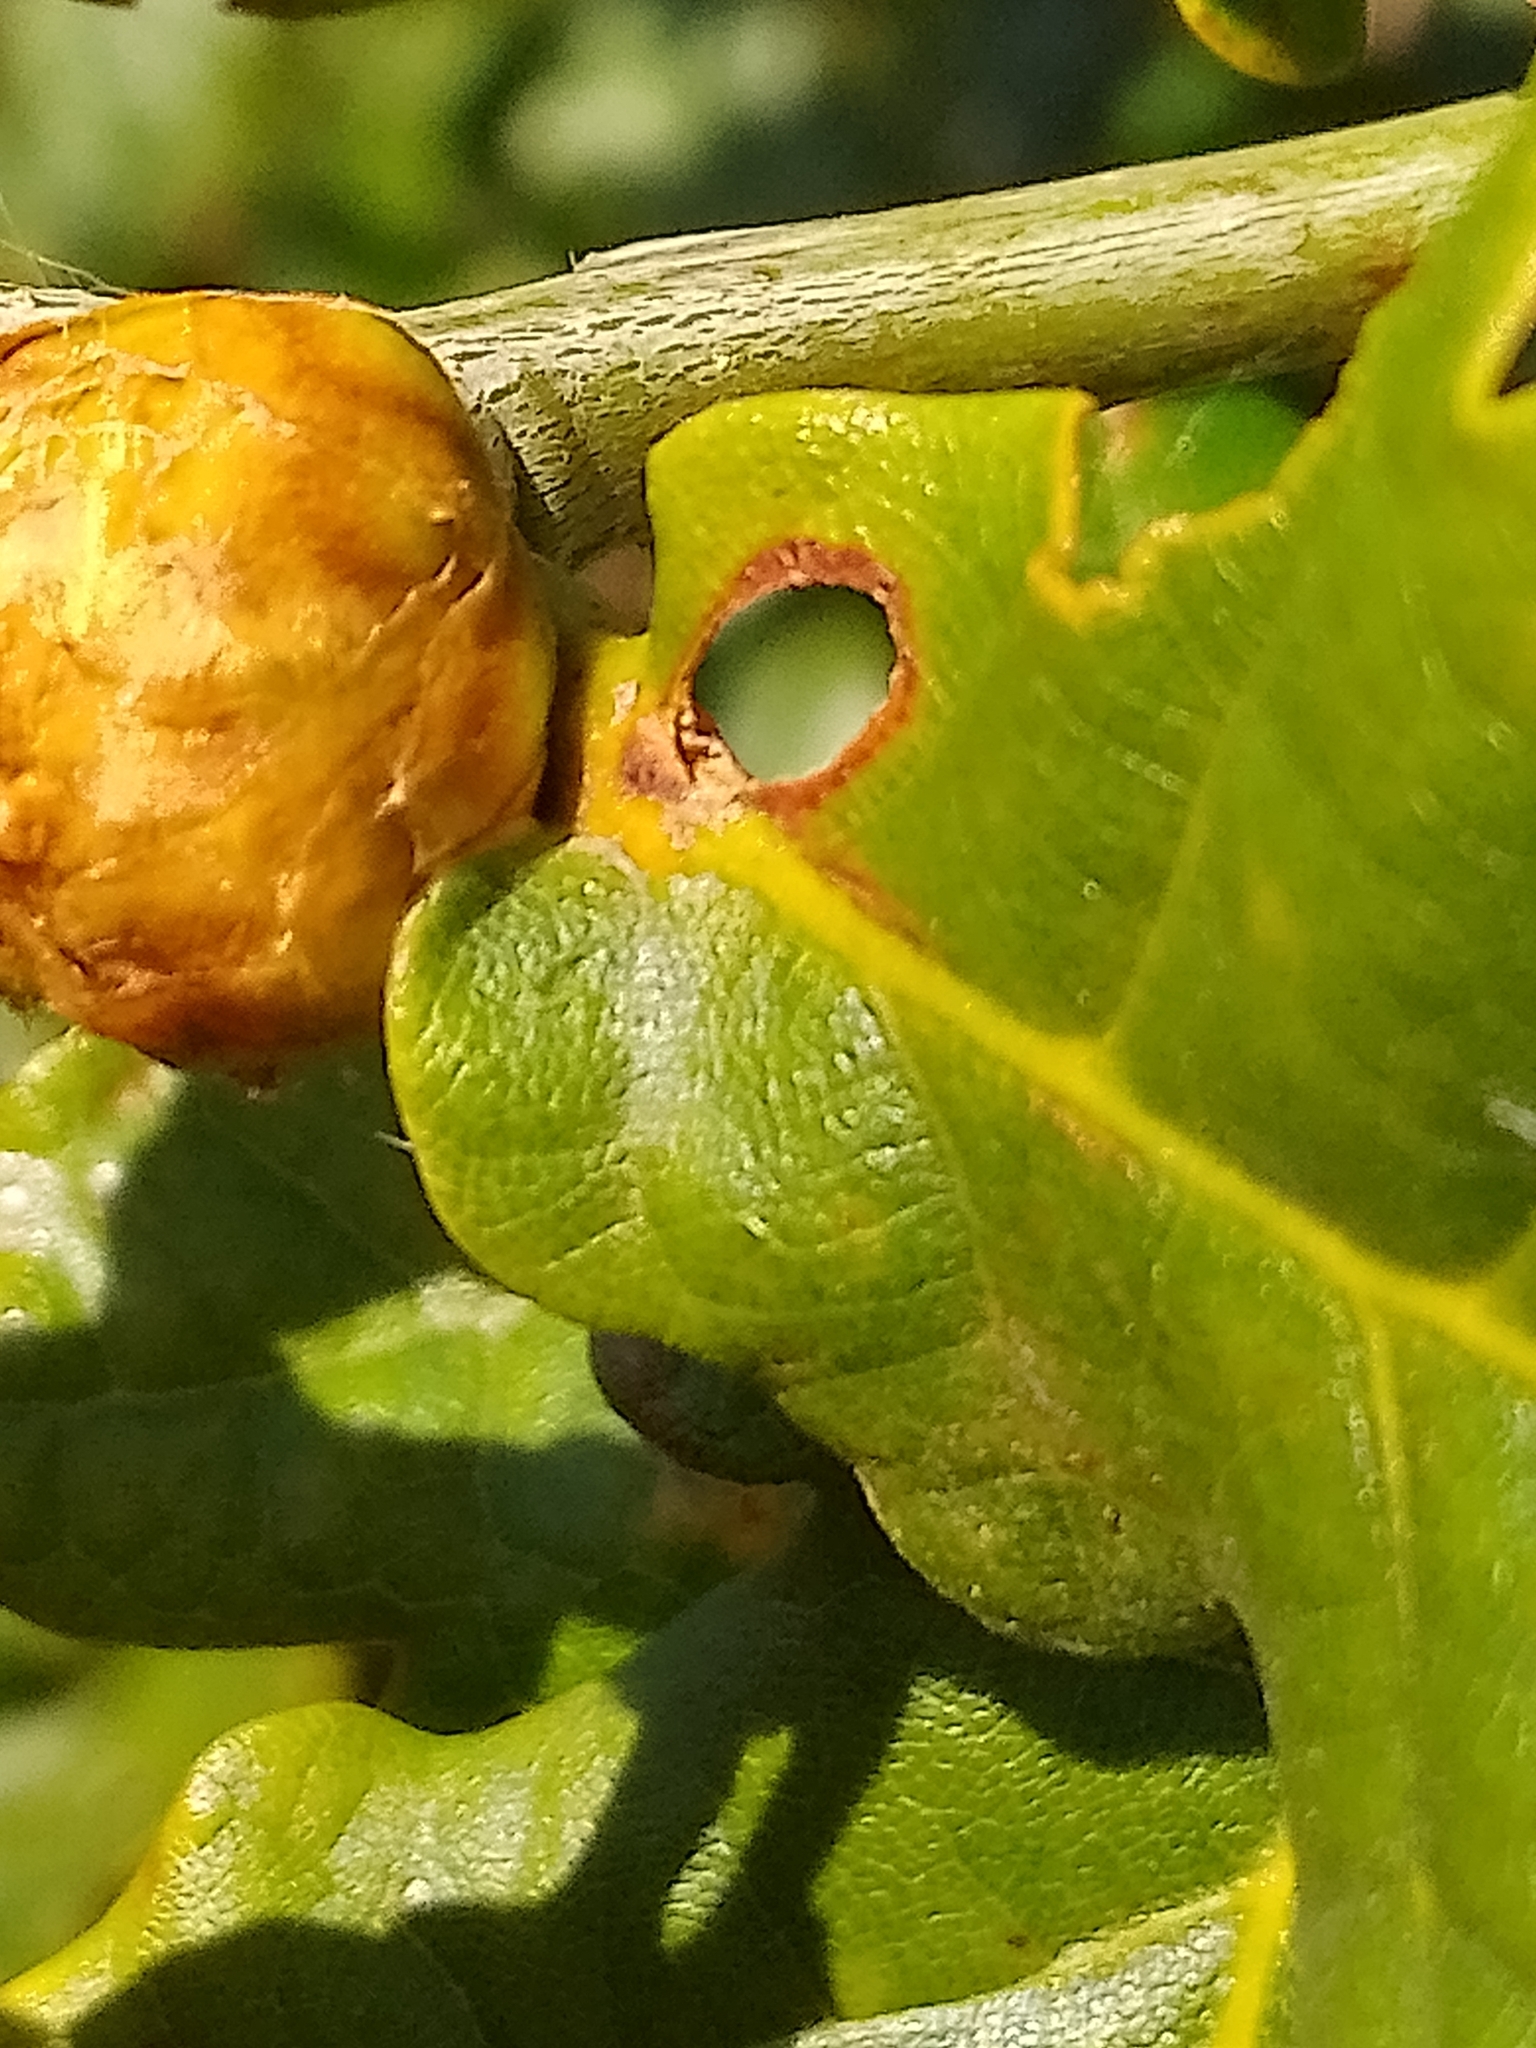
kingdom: Animalia
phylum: Arthropoda
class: Insecta
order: Hymenoptera
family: Cynipidae
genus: Andricus
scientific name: Andricus foecundatrix
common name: Artichoke gall
